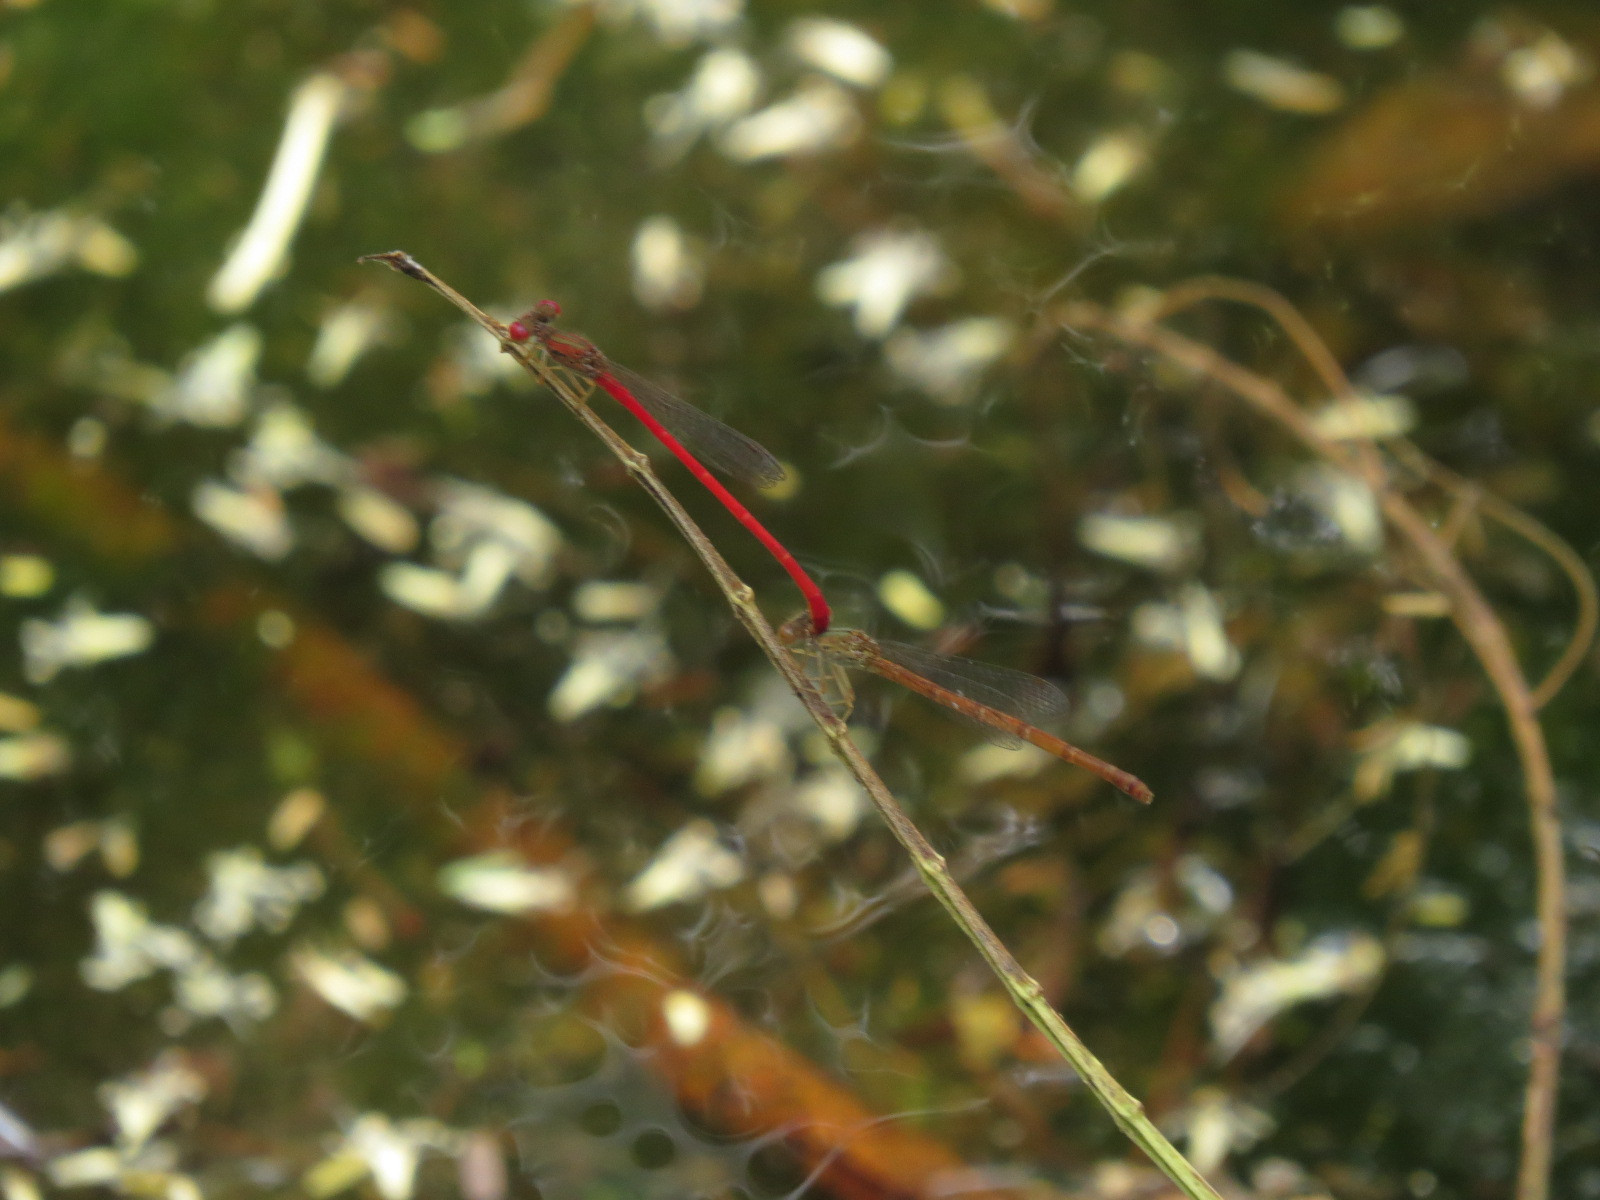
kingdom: Animalia
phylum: Arthropoda
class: Insecta
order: Odonata
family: Coenagrionidae
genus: Telebasis
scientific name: Telebasis salva
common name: Desert firetail
